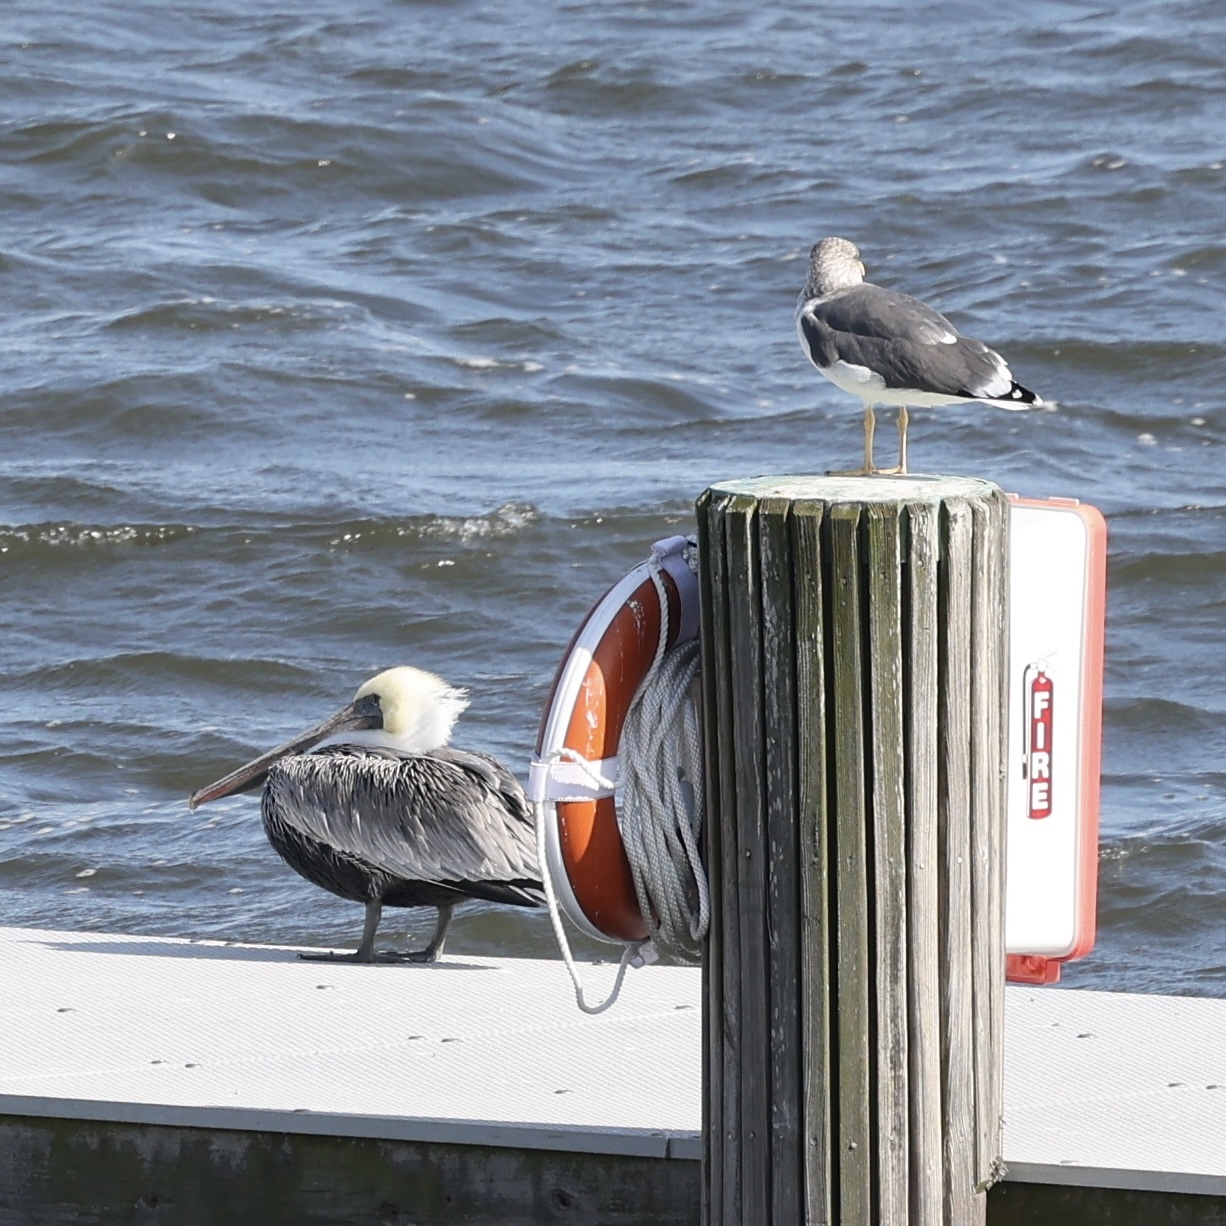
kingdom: Animalia
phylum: Chordata
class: Aves
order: Charadriiformes
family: Laridae
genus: Larus
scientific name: Larus fuscus
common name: Lesser black-backed gull
